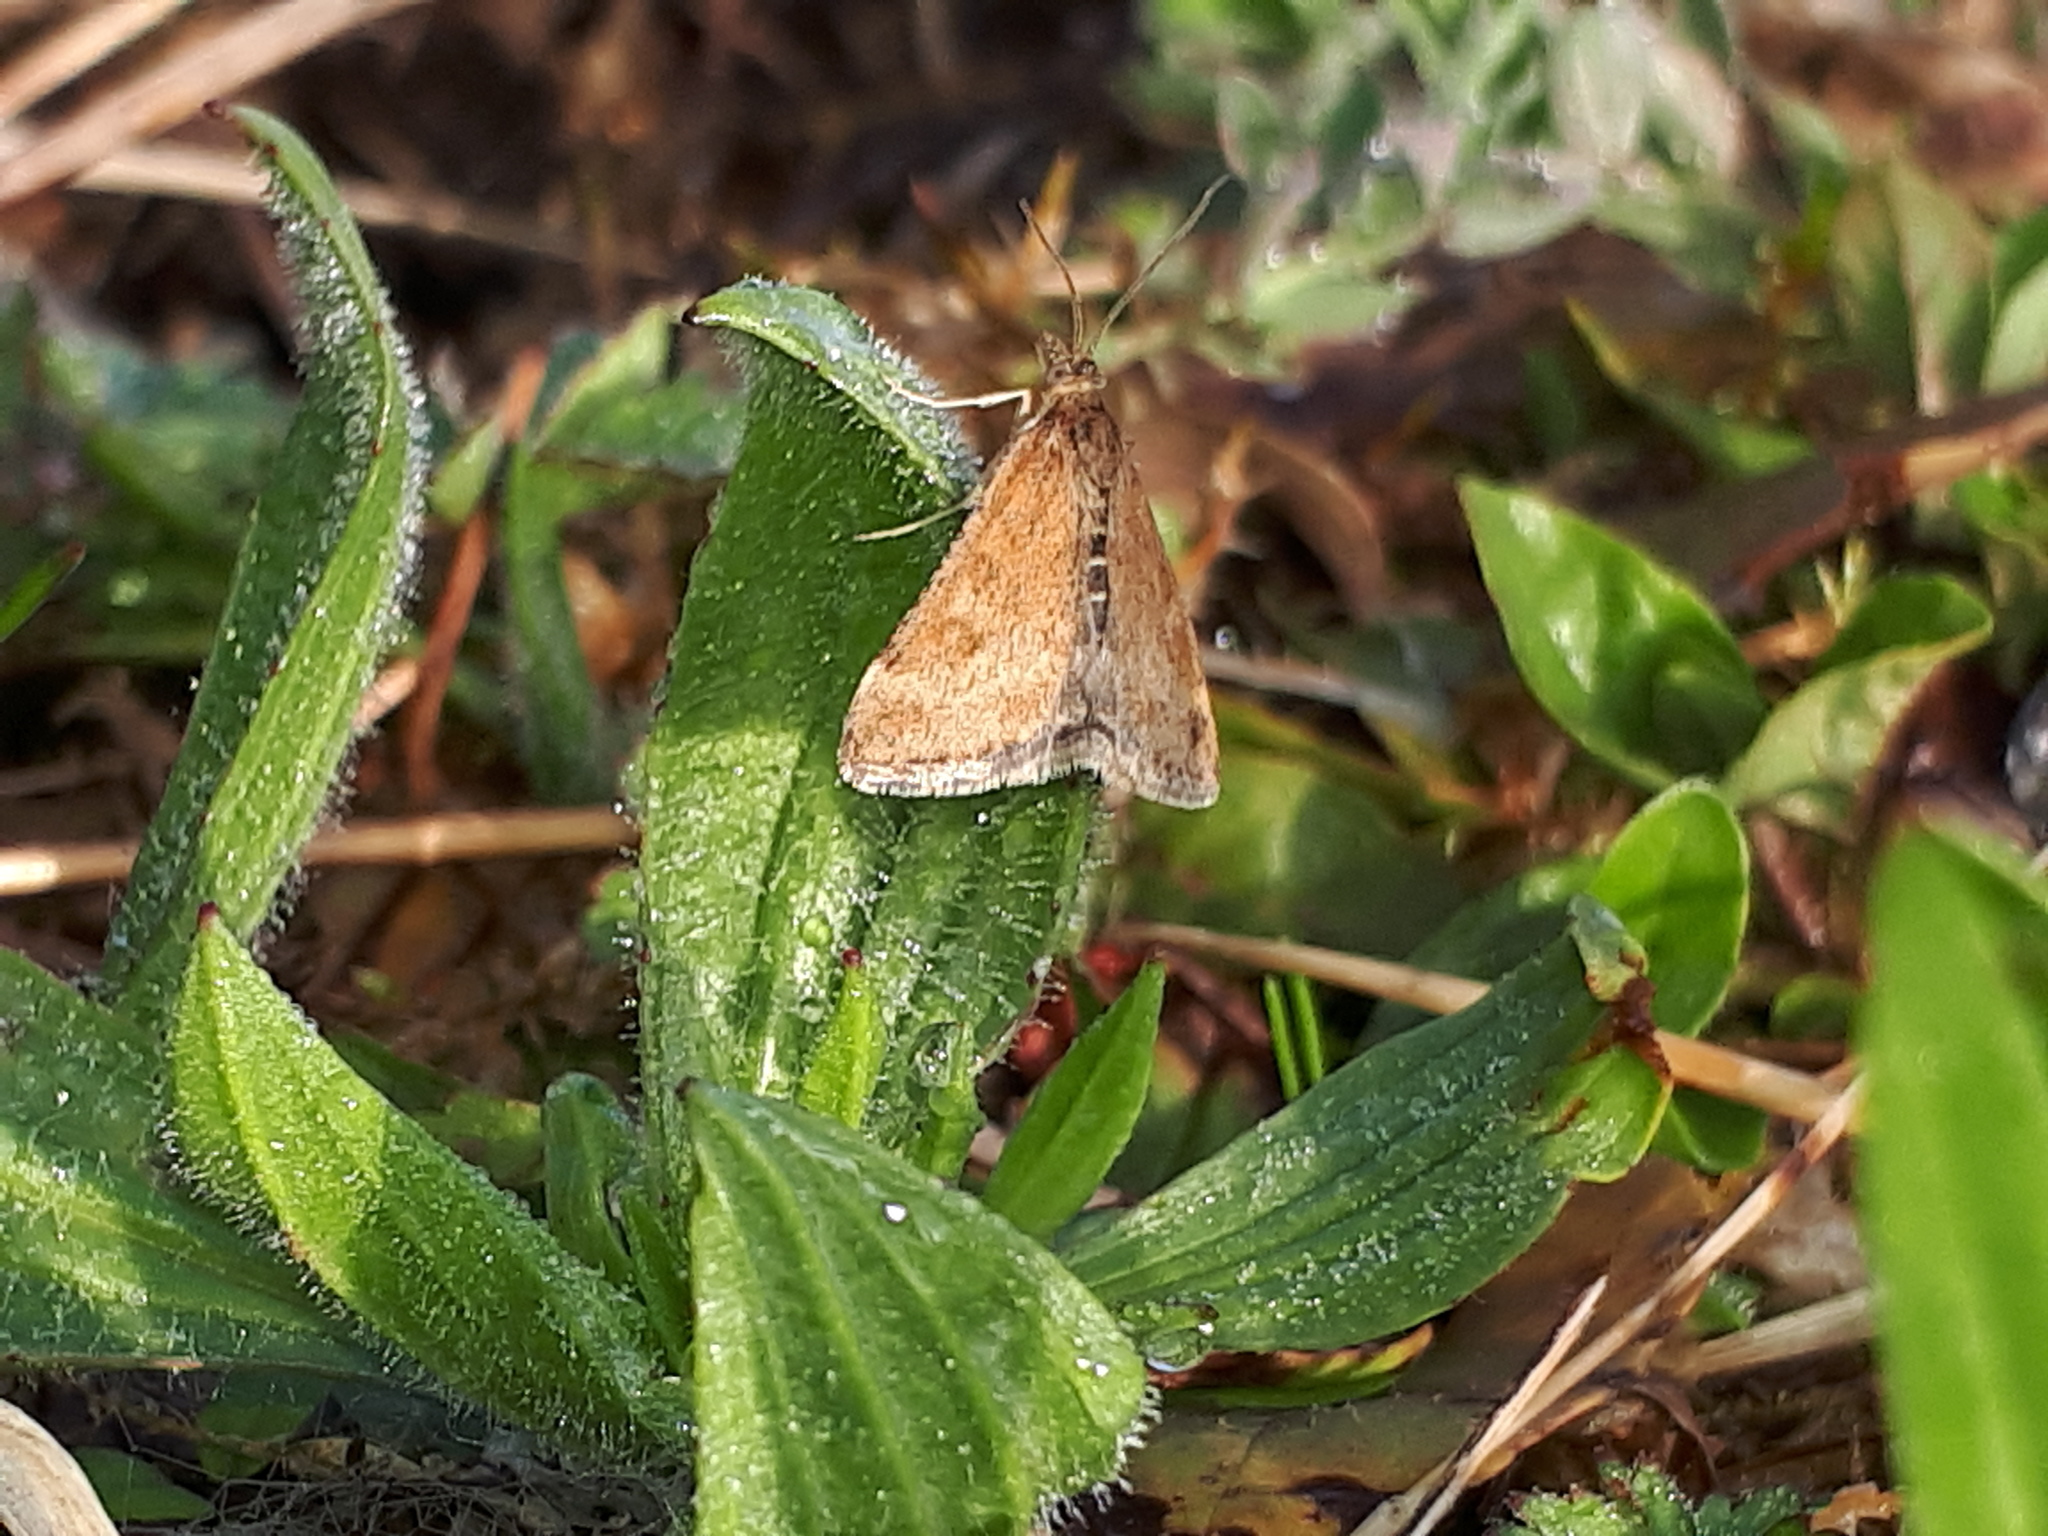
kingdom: Animalia
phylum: Arthropoda
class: Insecta
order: Lepidoptera
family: Crambidae
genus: Pyrausta
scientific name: Pyrausta despicata
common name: Straw-barred pearl
